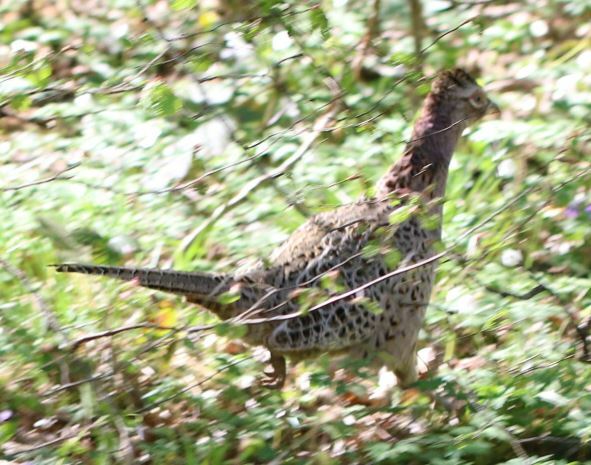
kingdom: Animalia
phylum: Chordata
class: Aves
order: Galliformes
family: Phasianidae
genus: Phasianus
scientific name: Phasianus colchicus
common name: Common pheasant
